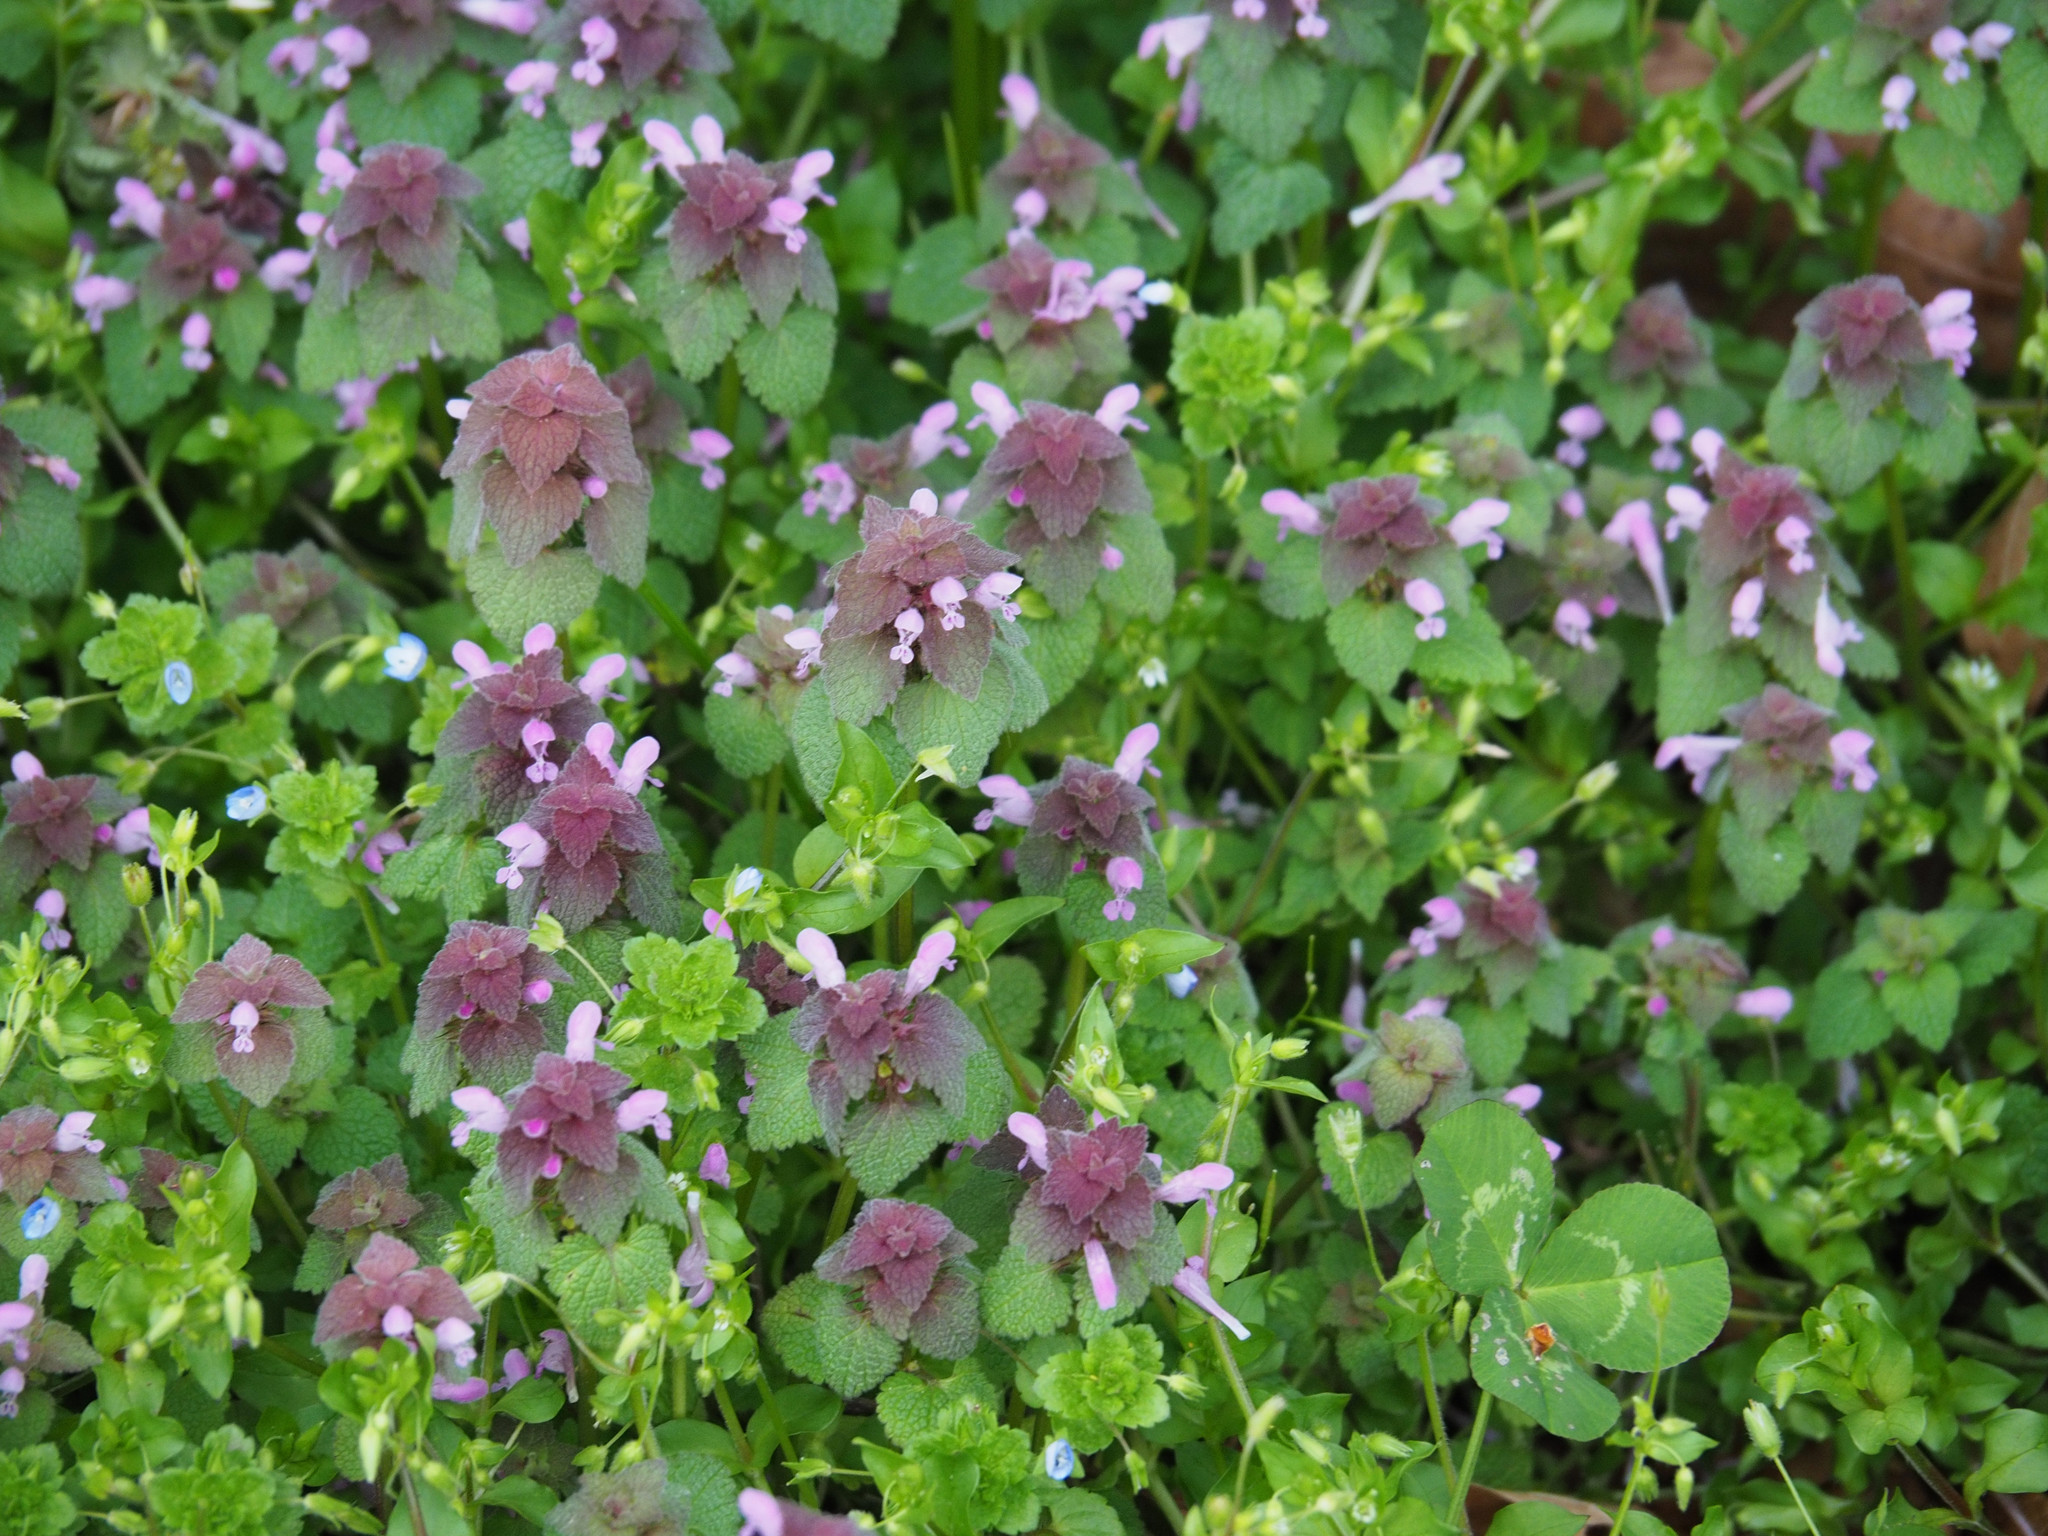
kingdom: Plantae
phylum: Tracheophyta
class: Magnoliopsida
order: Lamiales
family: Lamiaceae
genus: Lamium
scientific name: Lamium purpureum
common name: Red dead-nettle
